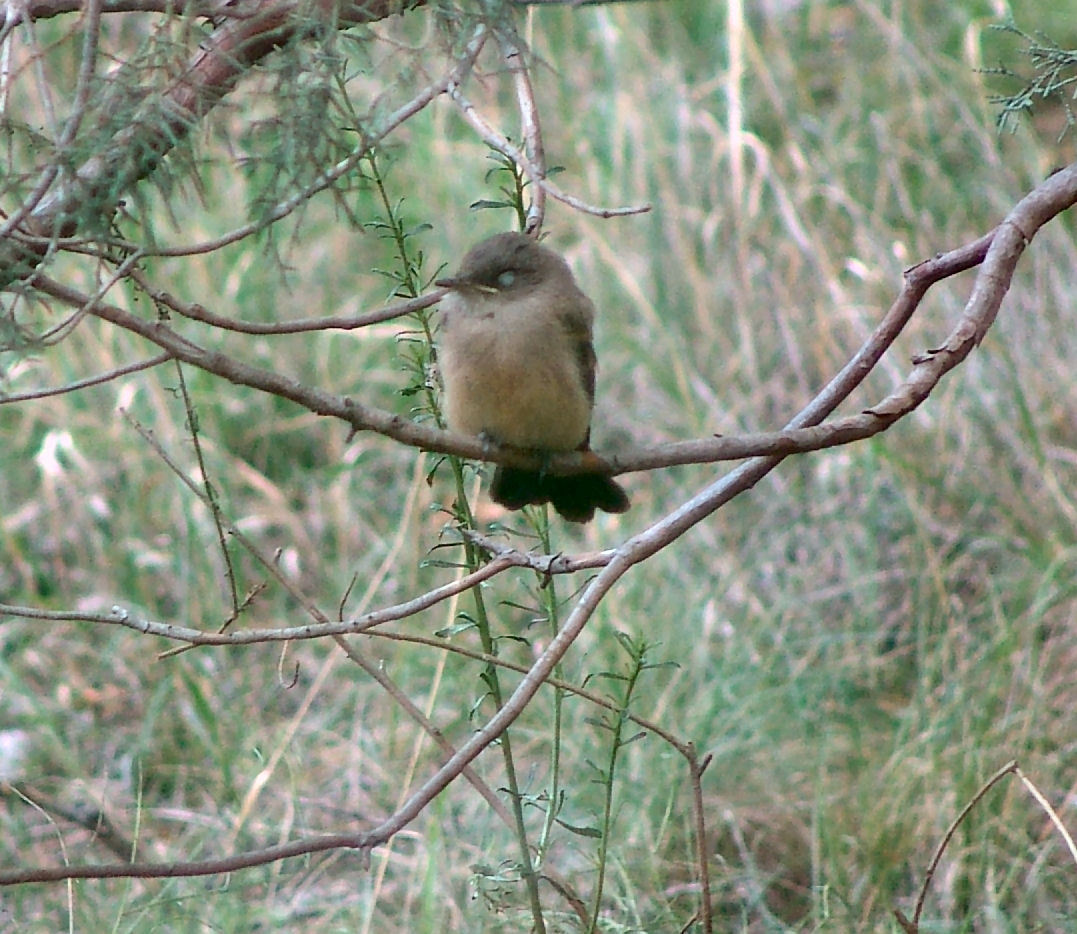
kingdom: Animalia
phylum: Chordata
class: Aves
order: Passeriformes
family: Tyrannidae
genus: Sayornis
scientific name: Sayornis saya
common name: Say's phoebe
